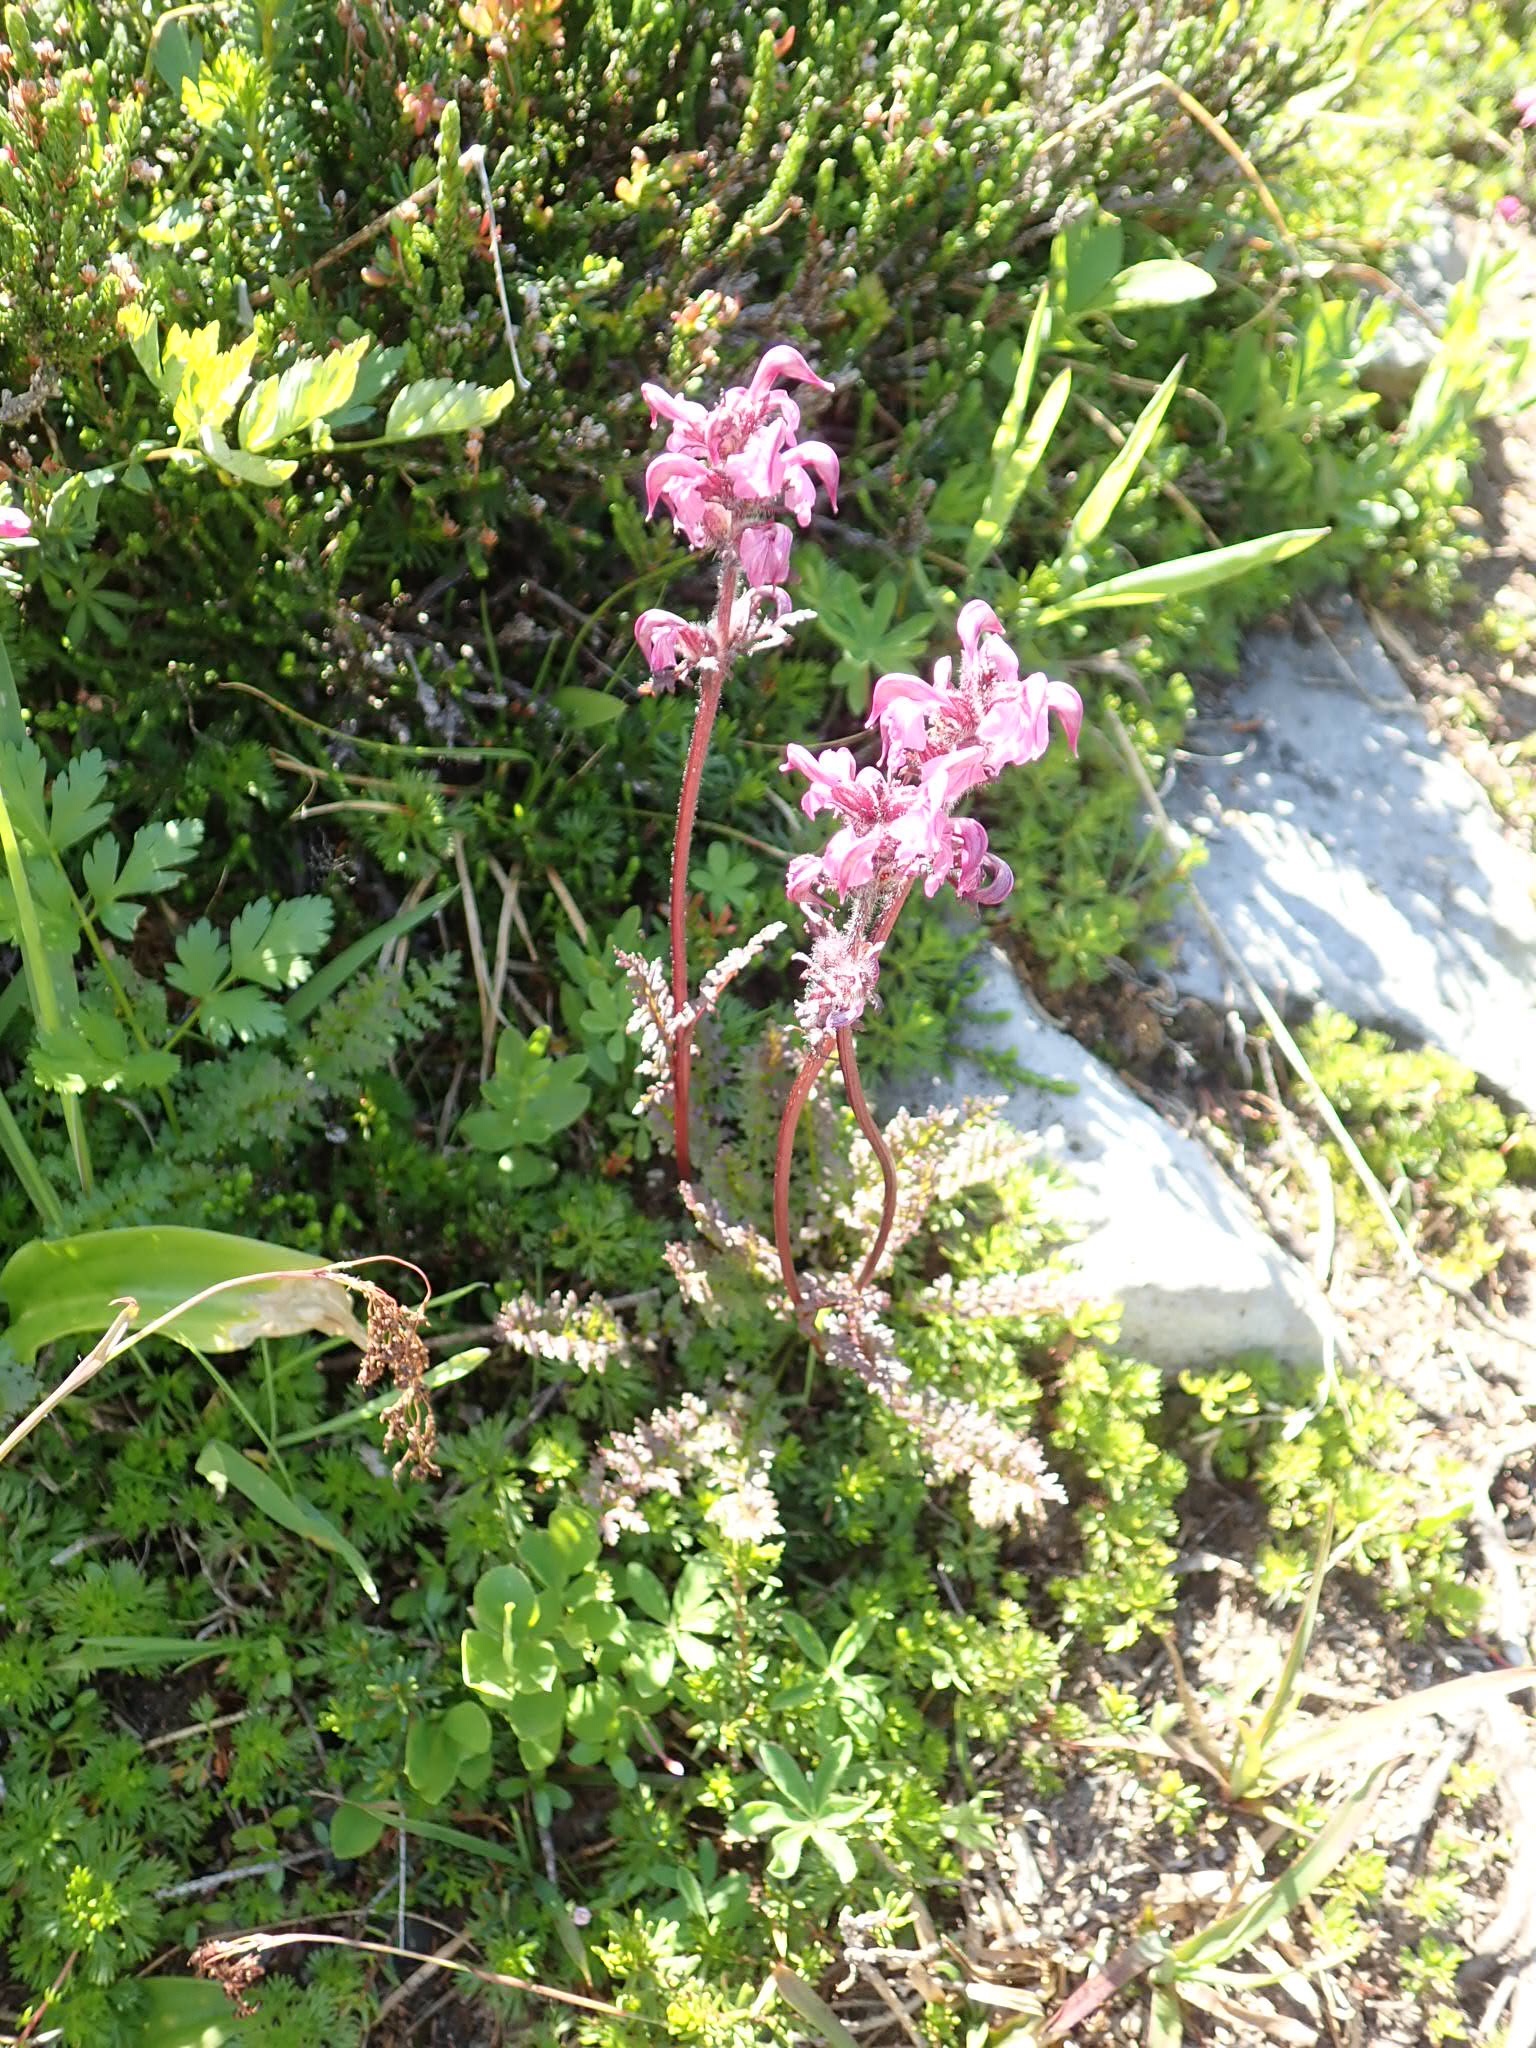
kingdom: Plantae
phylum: Tracheophyta
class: Magnoliopsida
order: Lamiales
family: Orobanchaceae
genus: Pedicularis
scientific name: Pedicularis ornithorhynchos
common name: Bird's-beak lousewort
